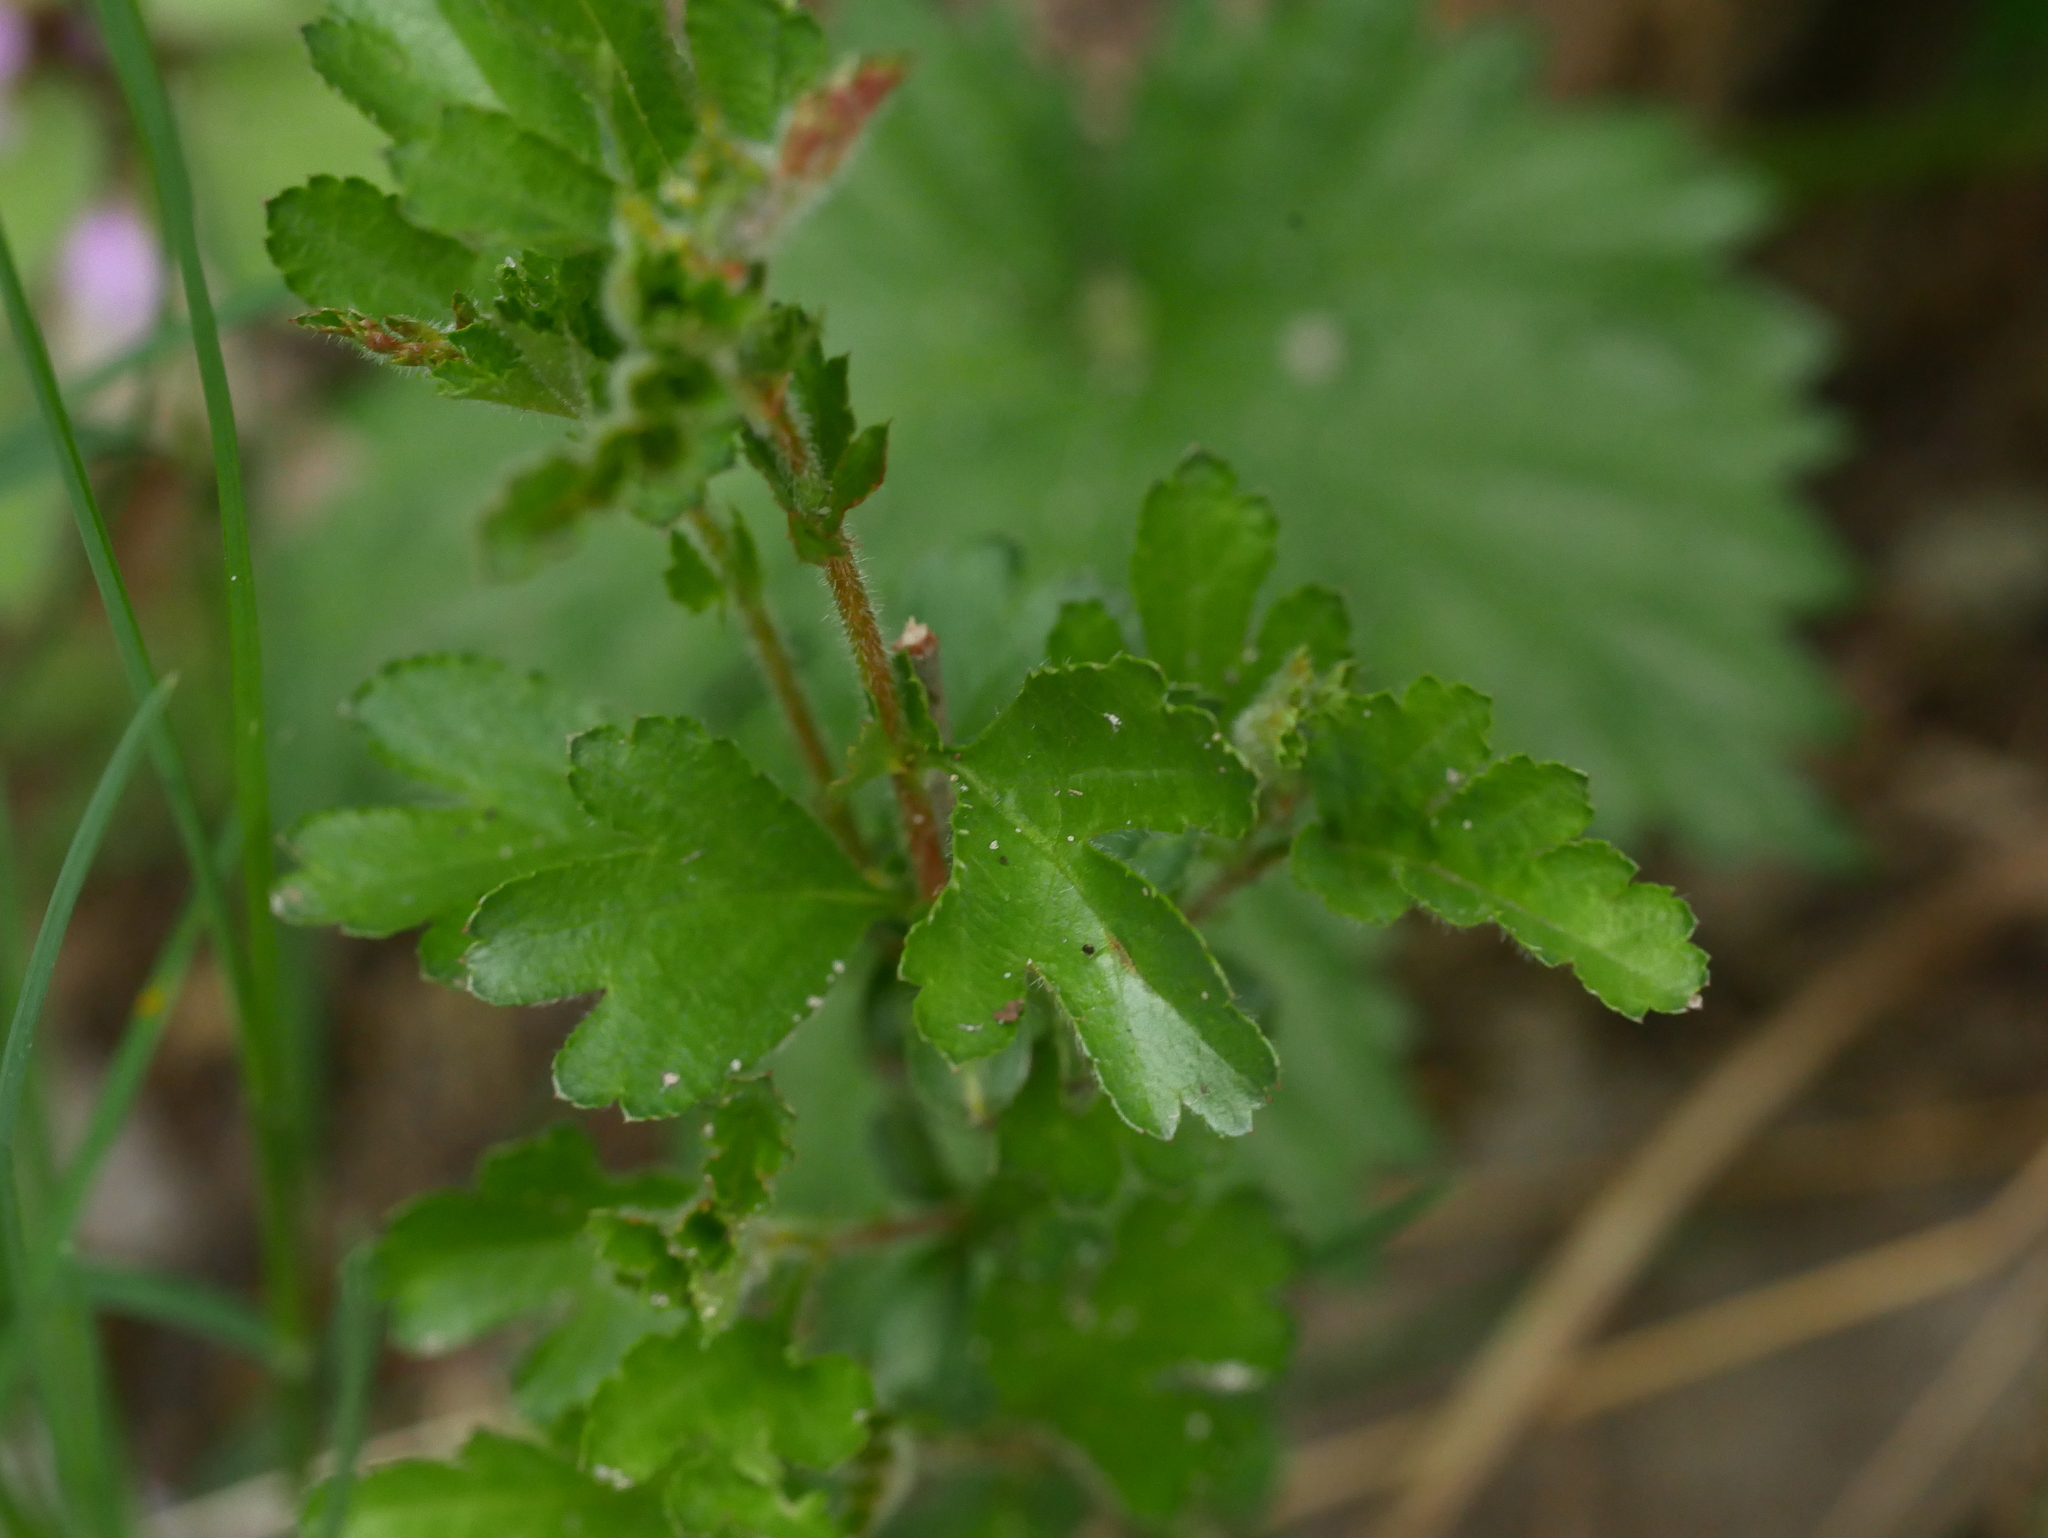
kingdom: Plantae
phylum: Tracheophyta
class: Magnoliopsida
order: Rosales
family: Rosaceae
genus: Crataegus
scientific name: Crataegus monogyna
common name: Hawthorn
